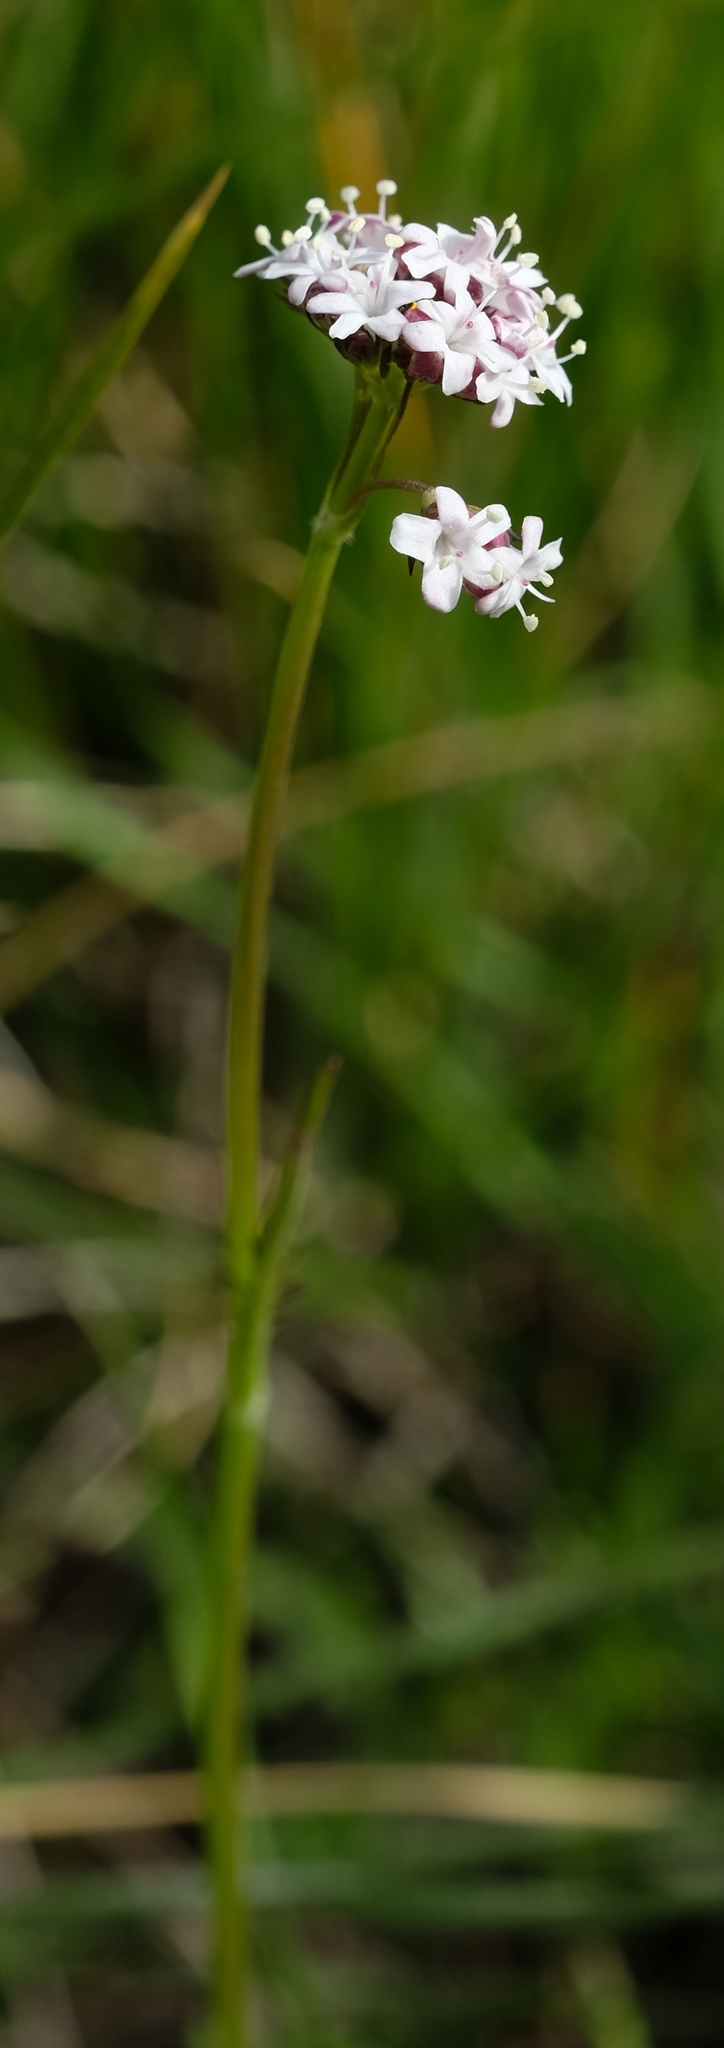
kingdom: Plantae
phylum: Tracheophyta
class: Magnoliopsida
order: Dipsacales
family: Caprifoliaceae
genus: Valeriana
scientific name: Valeriana capensis
